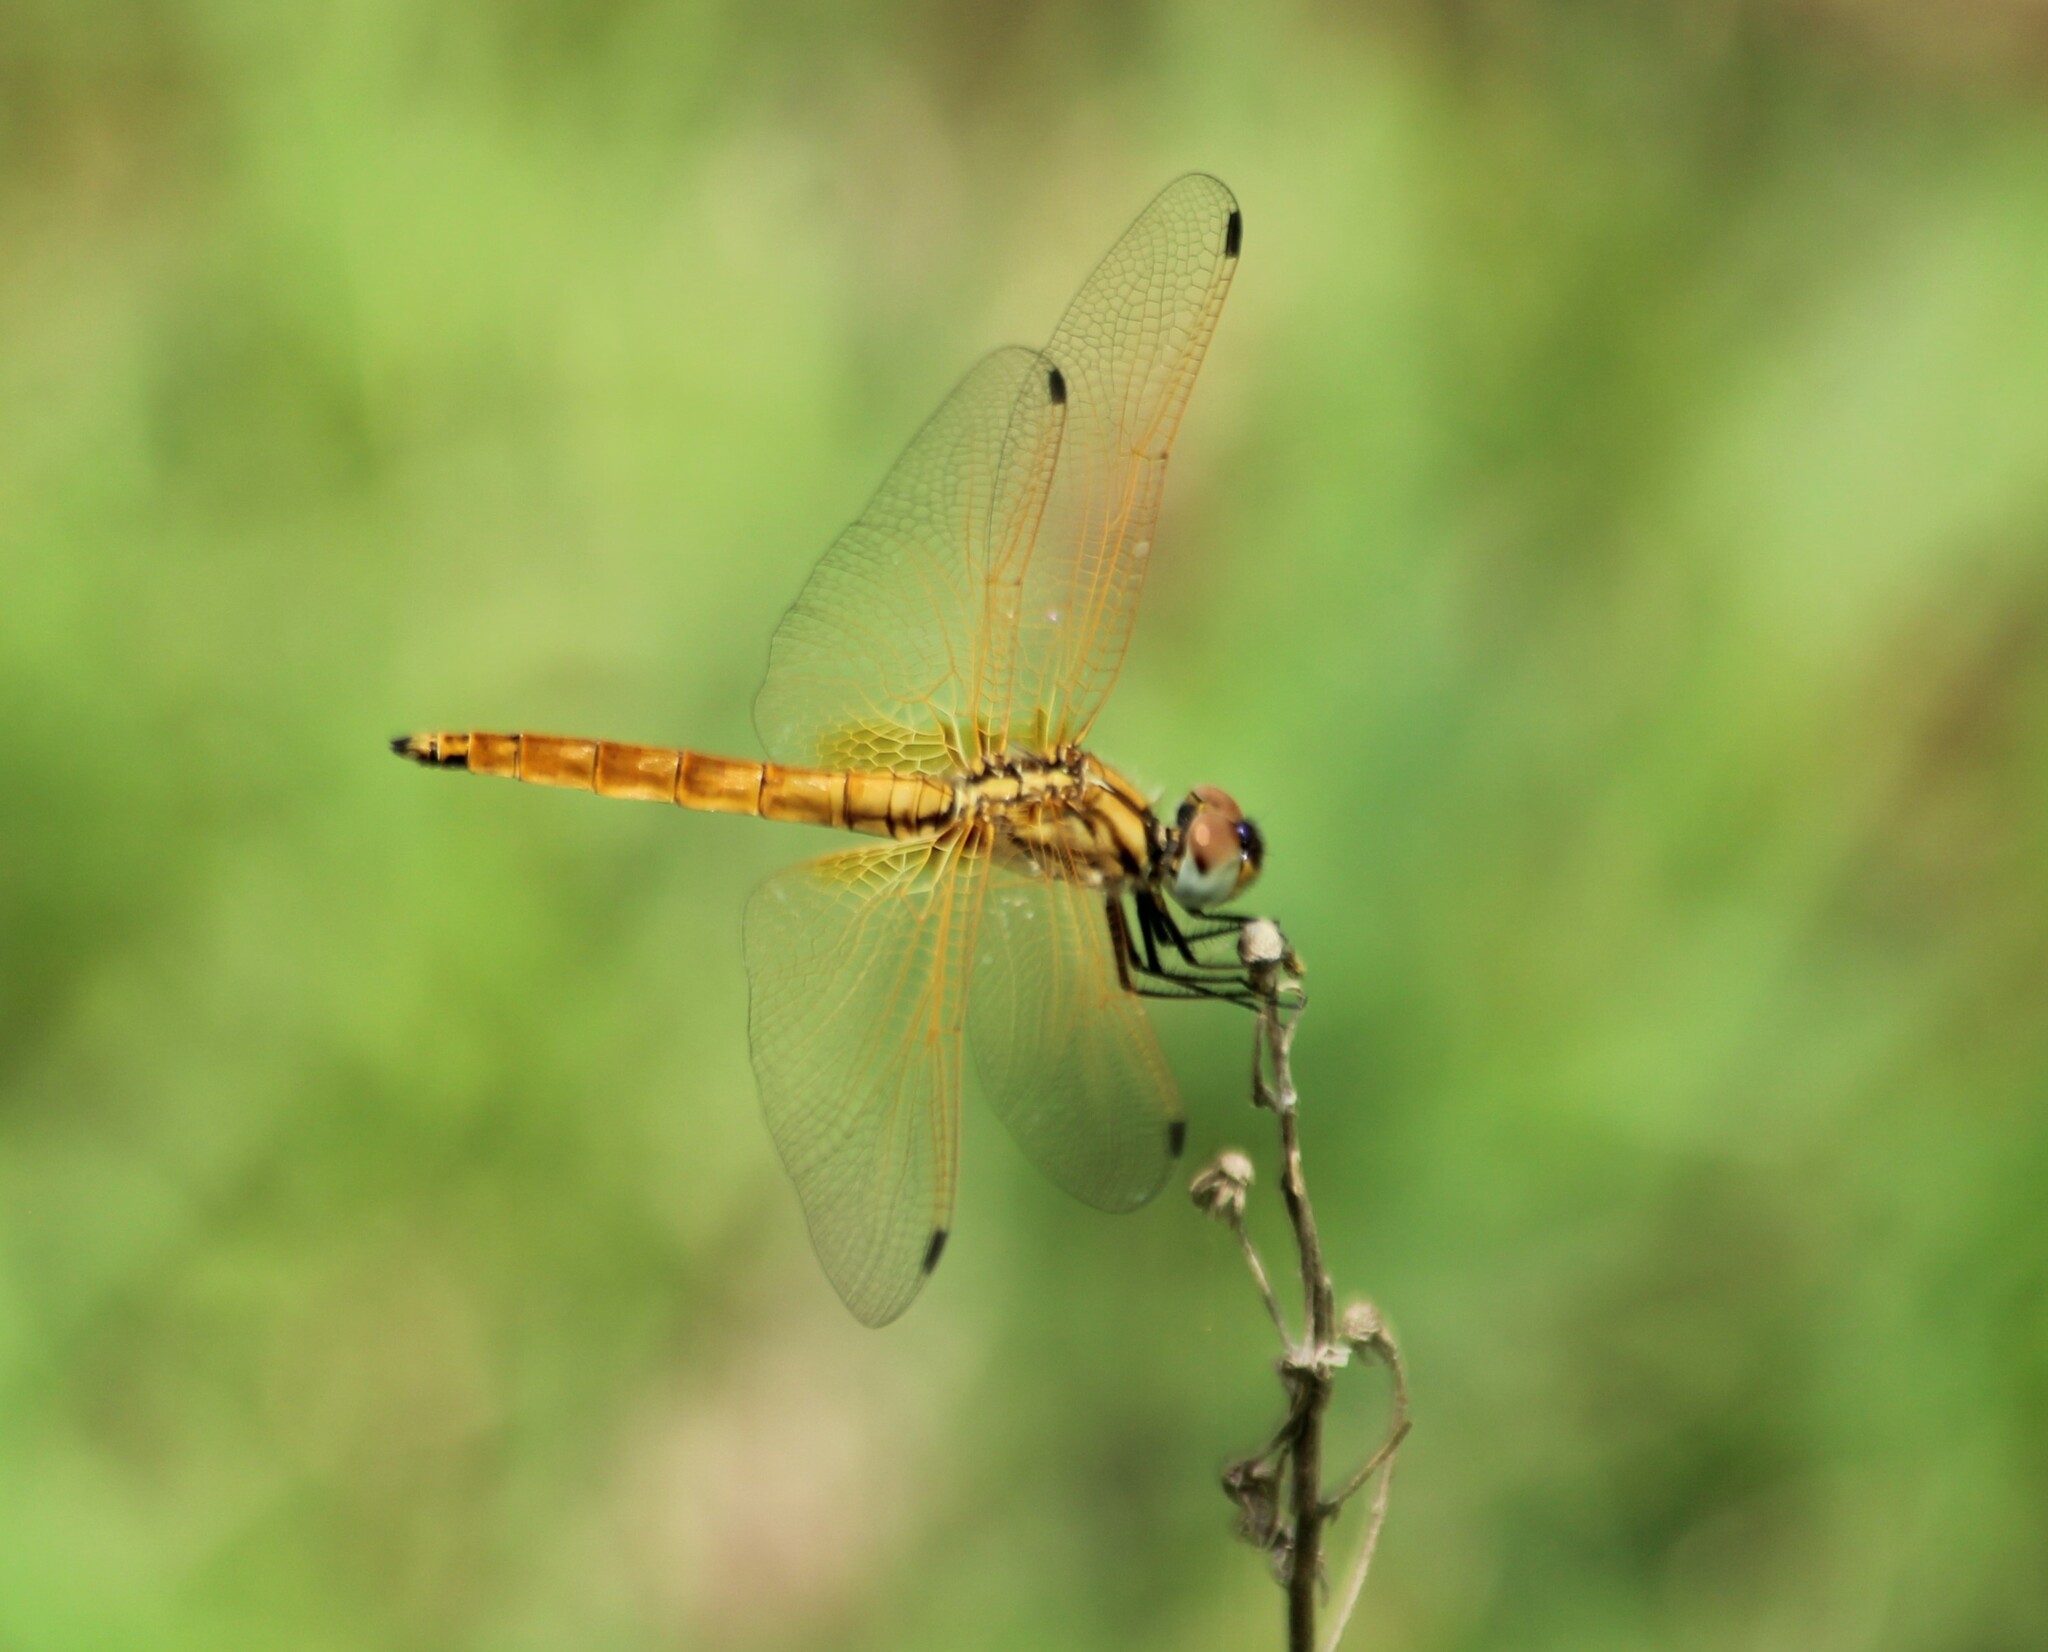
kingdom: Animalia
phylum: Arthropoda
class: Insecta
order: Odonata
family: Libellulidae
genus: Trithemis
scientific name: Trithemis aurora
